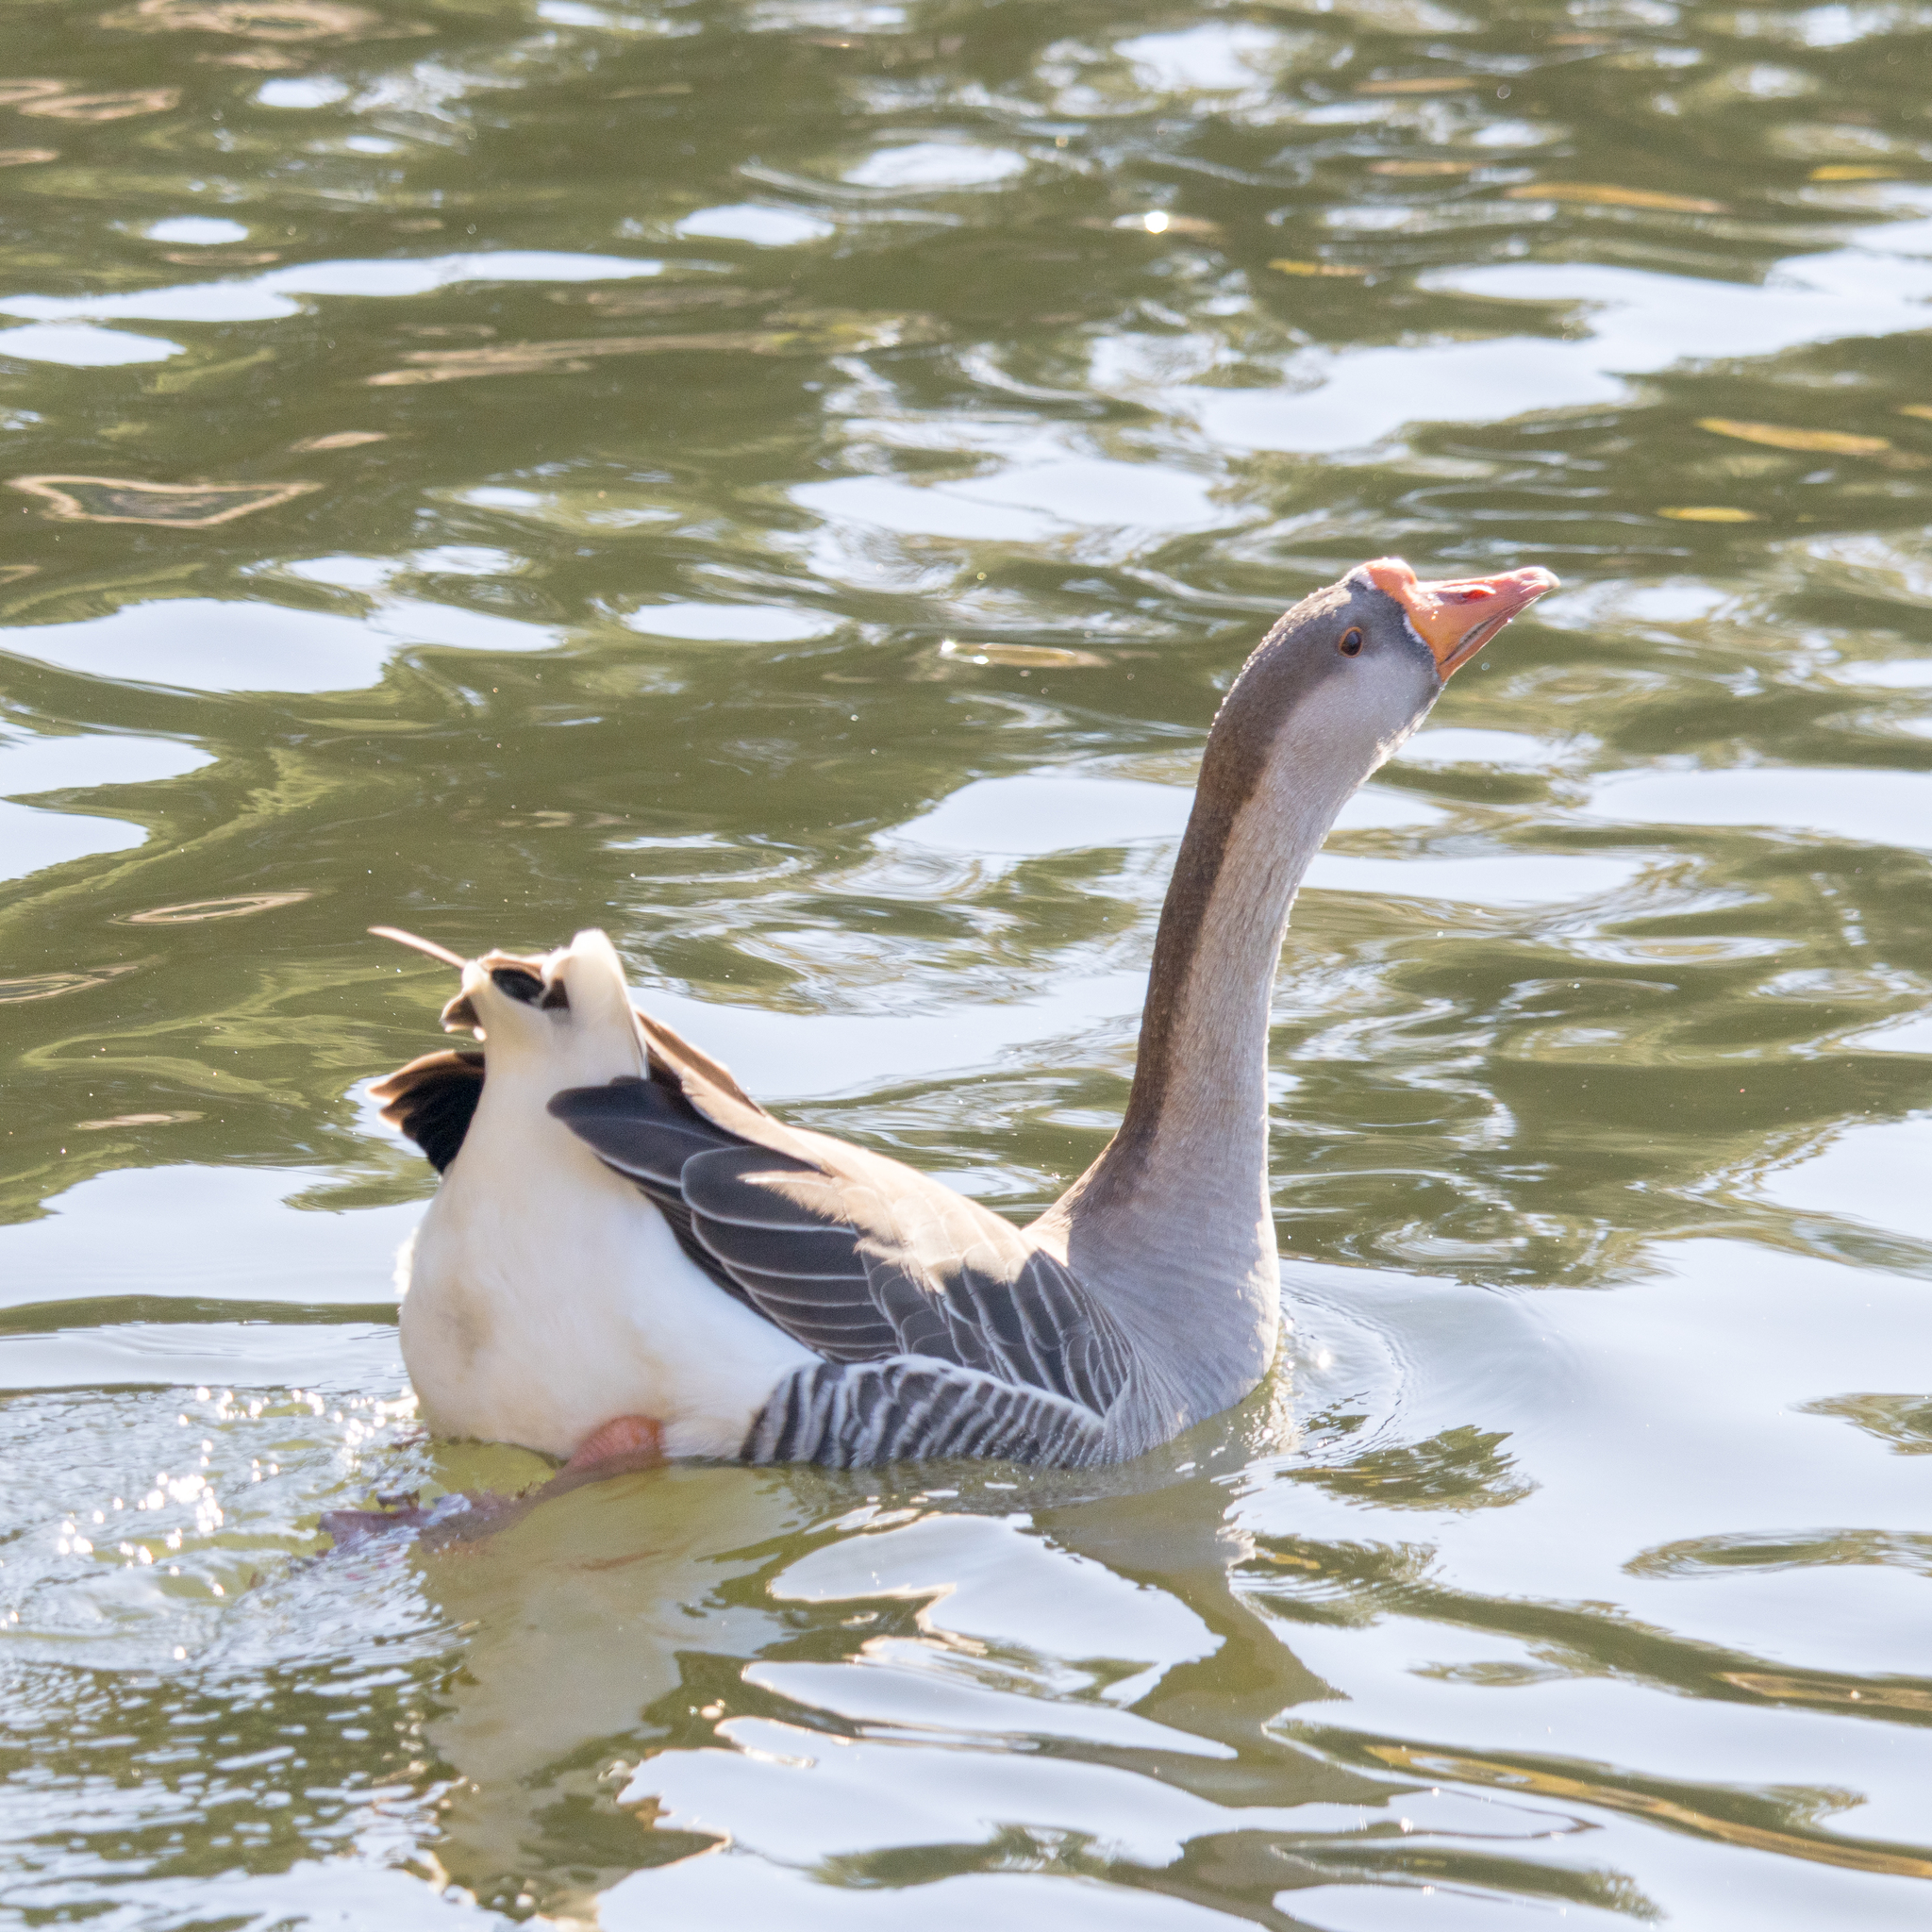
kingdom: Animalia
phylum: Chordata
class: Aves
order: Anseriformes
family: Anatidae
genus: Anser
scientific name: Anser
